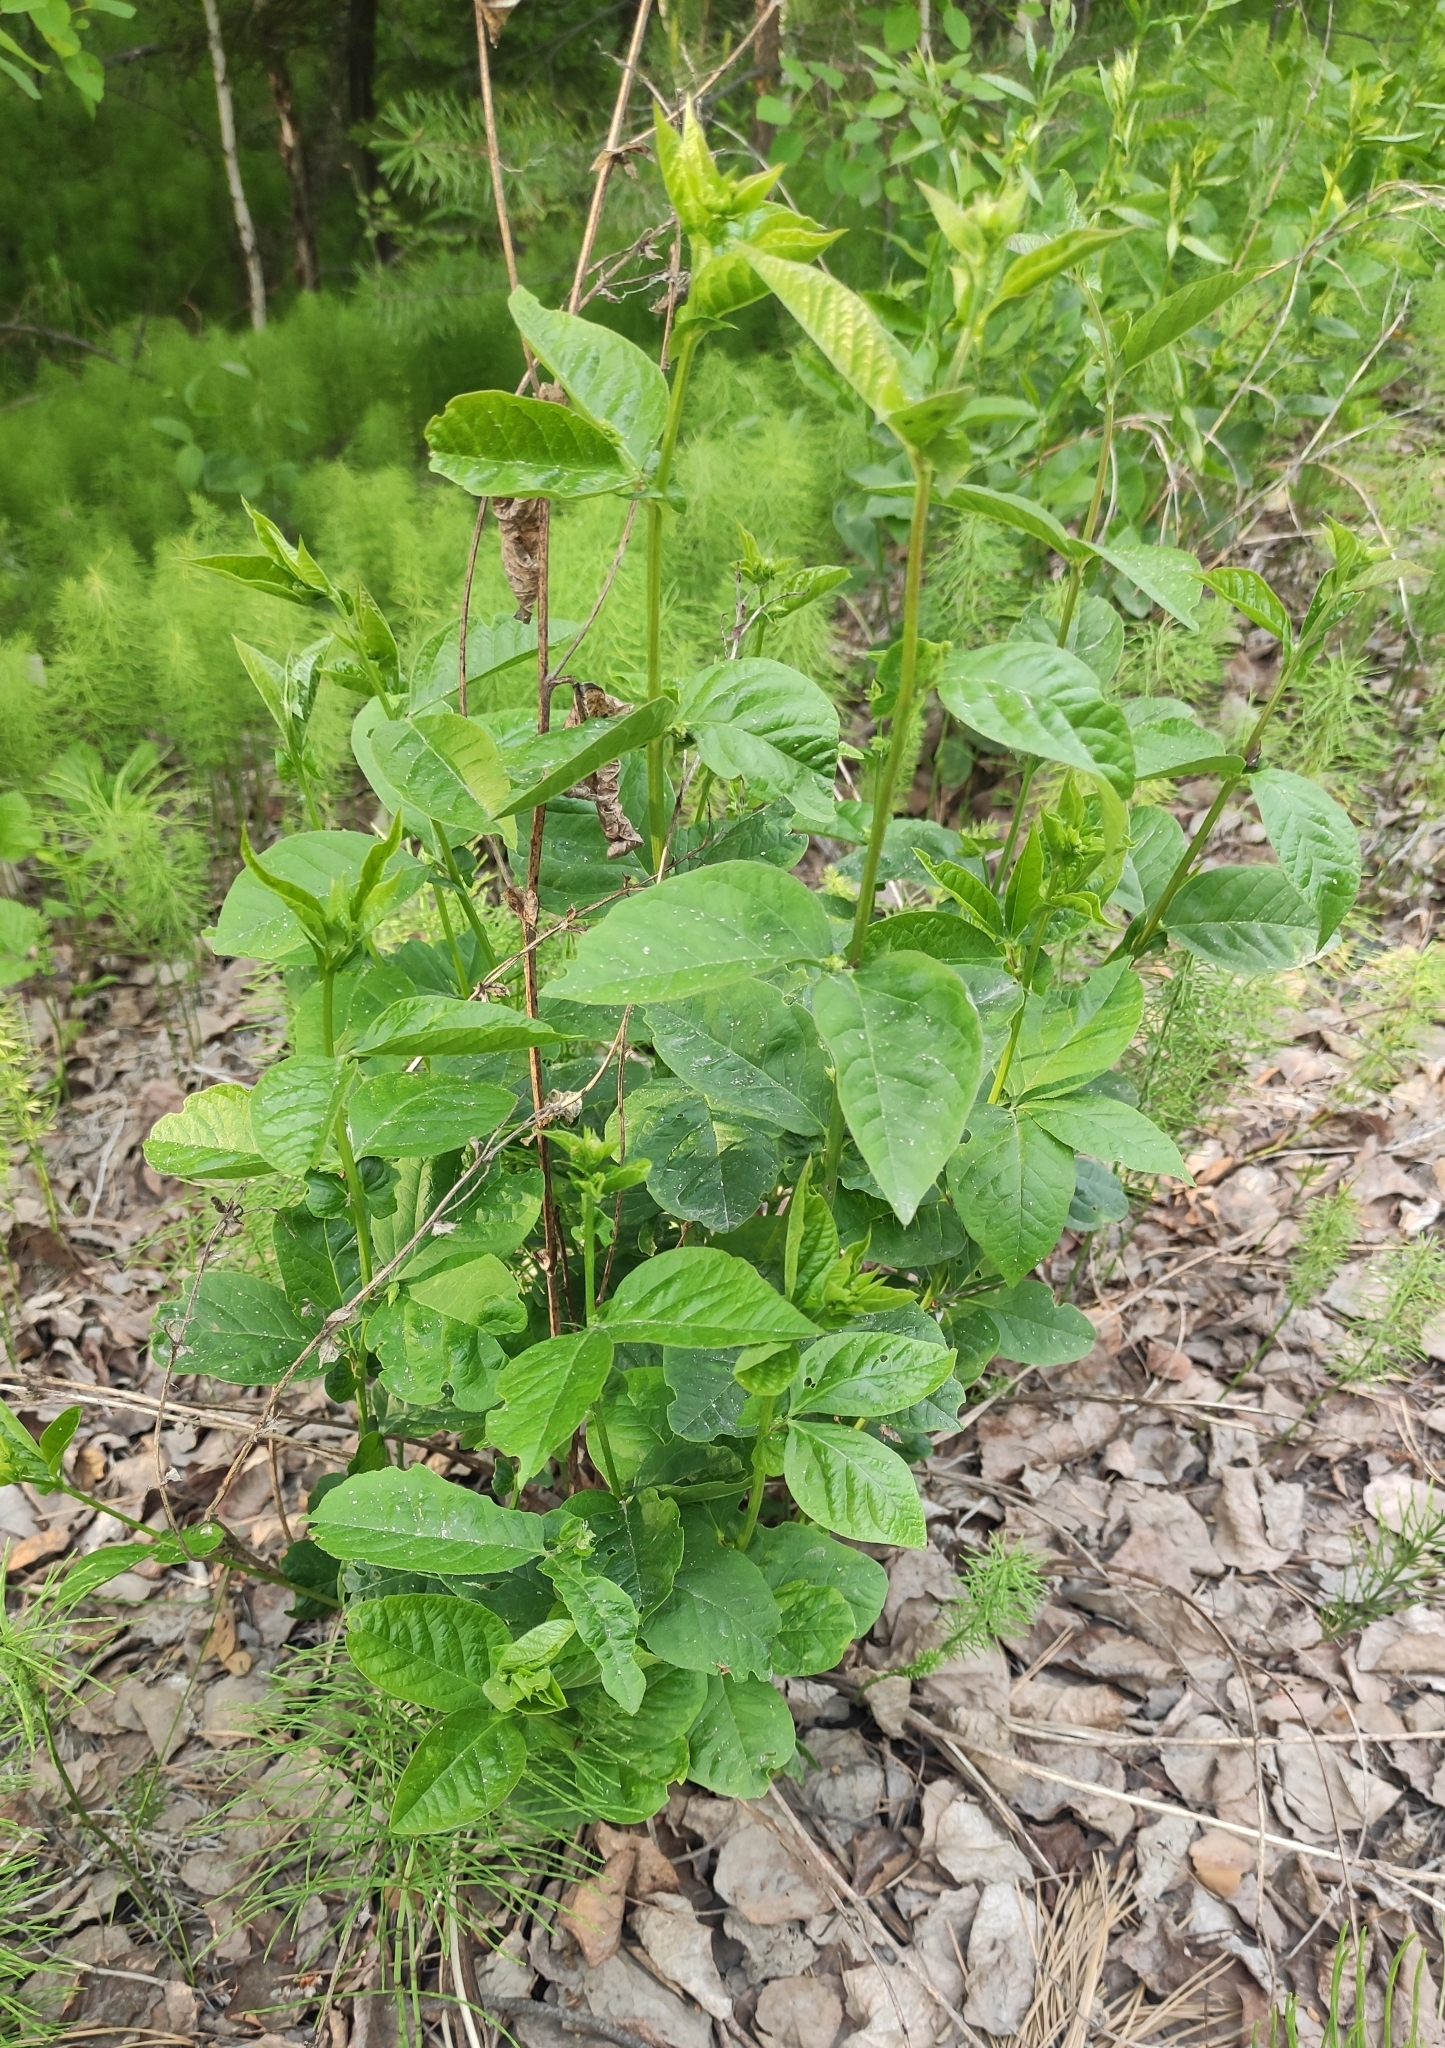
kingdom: Plantae
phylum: Tracheophyta
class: Magnoliopsida
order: Fabales
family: Fabaceae
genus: Vicia
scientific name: Vicia unijuga
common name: Two-leaf vetch
